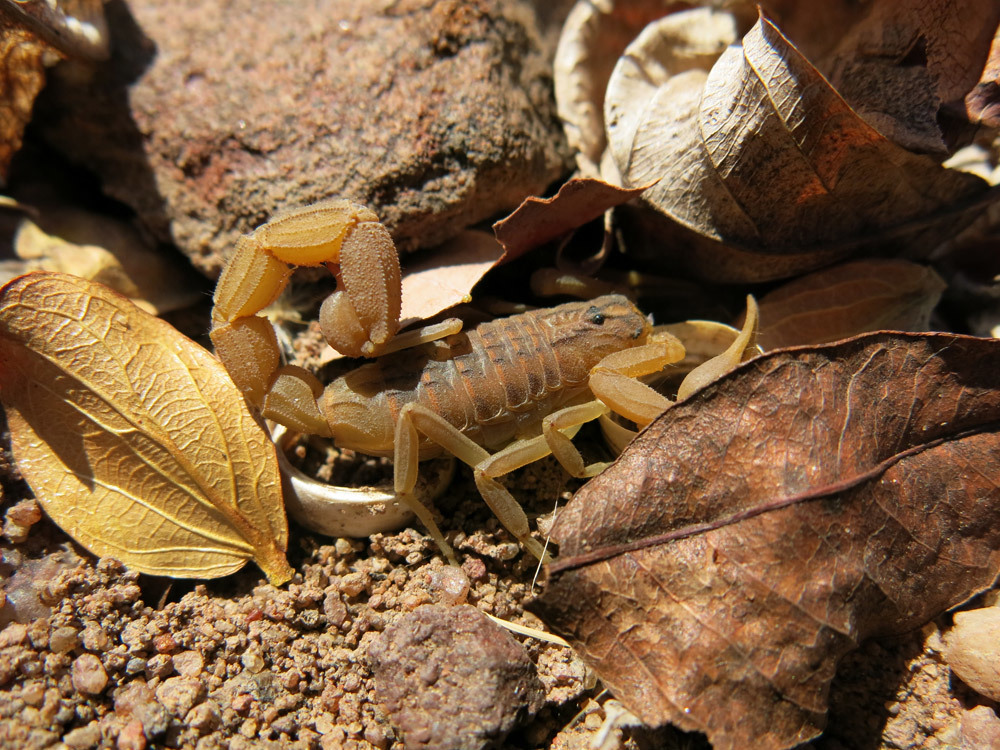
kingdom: Animalia
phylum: Arthropoda
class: Arachnida
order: Scorpiones
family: Buthidae
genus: Hottentotta
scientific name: Hottentotta trilineatus
